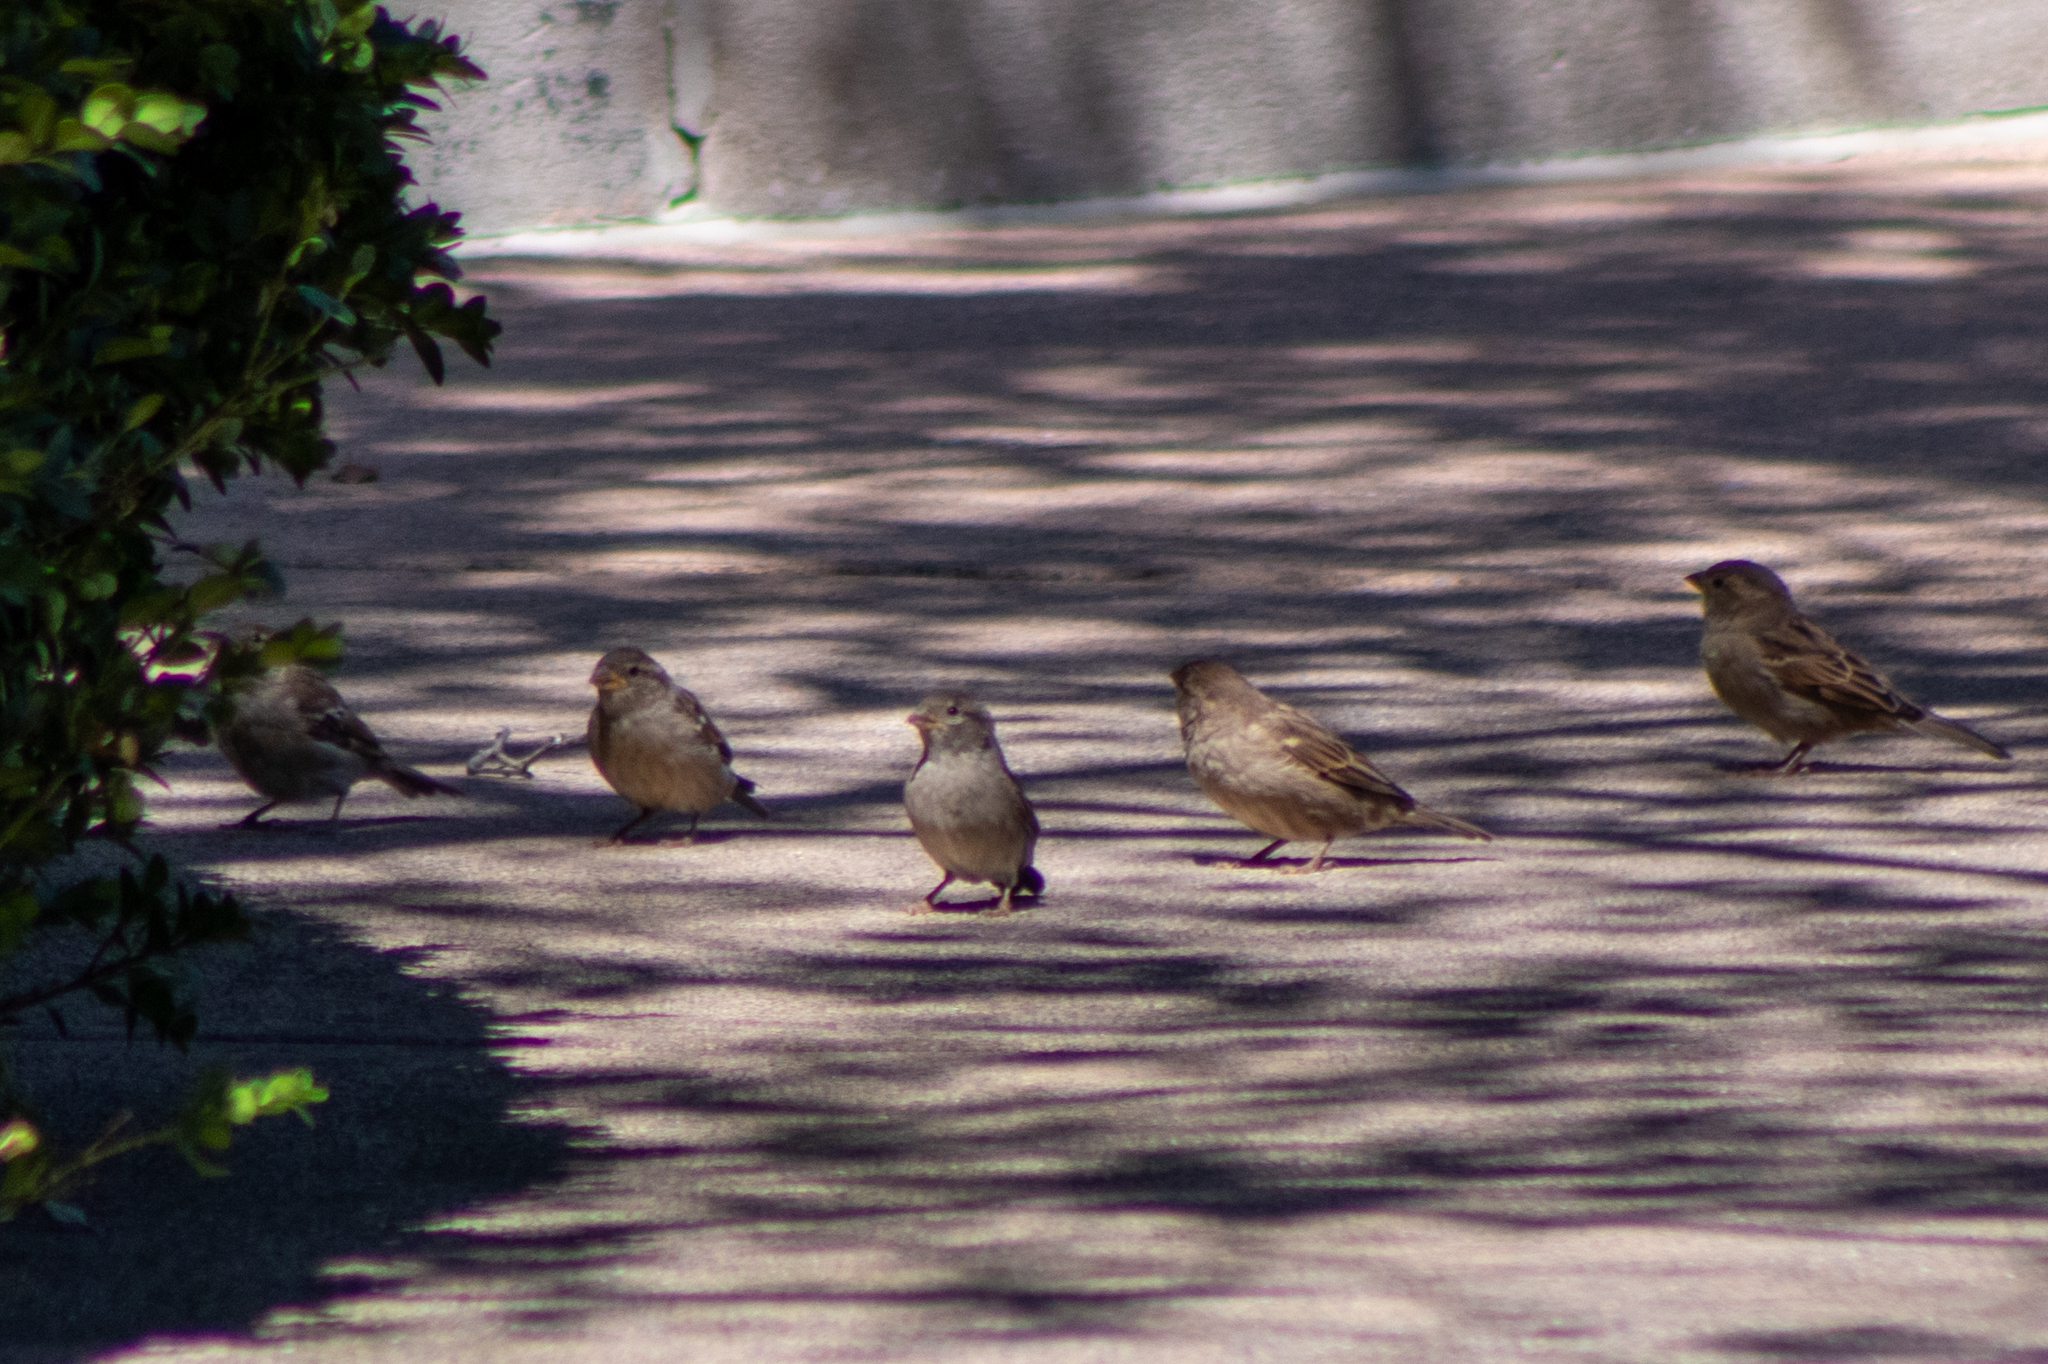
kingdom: Animalia
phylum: Chordata
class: Aves
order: Passeriformes
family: Passeridae
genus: Passer
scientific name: Passer domesticus
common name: House sparrow
